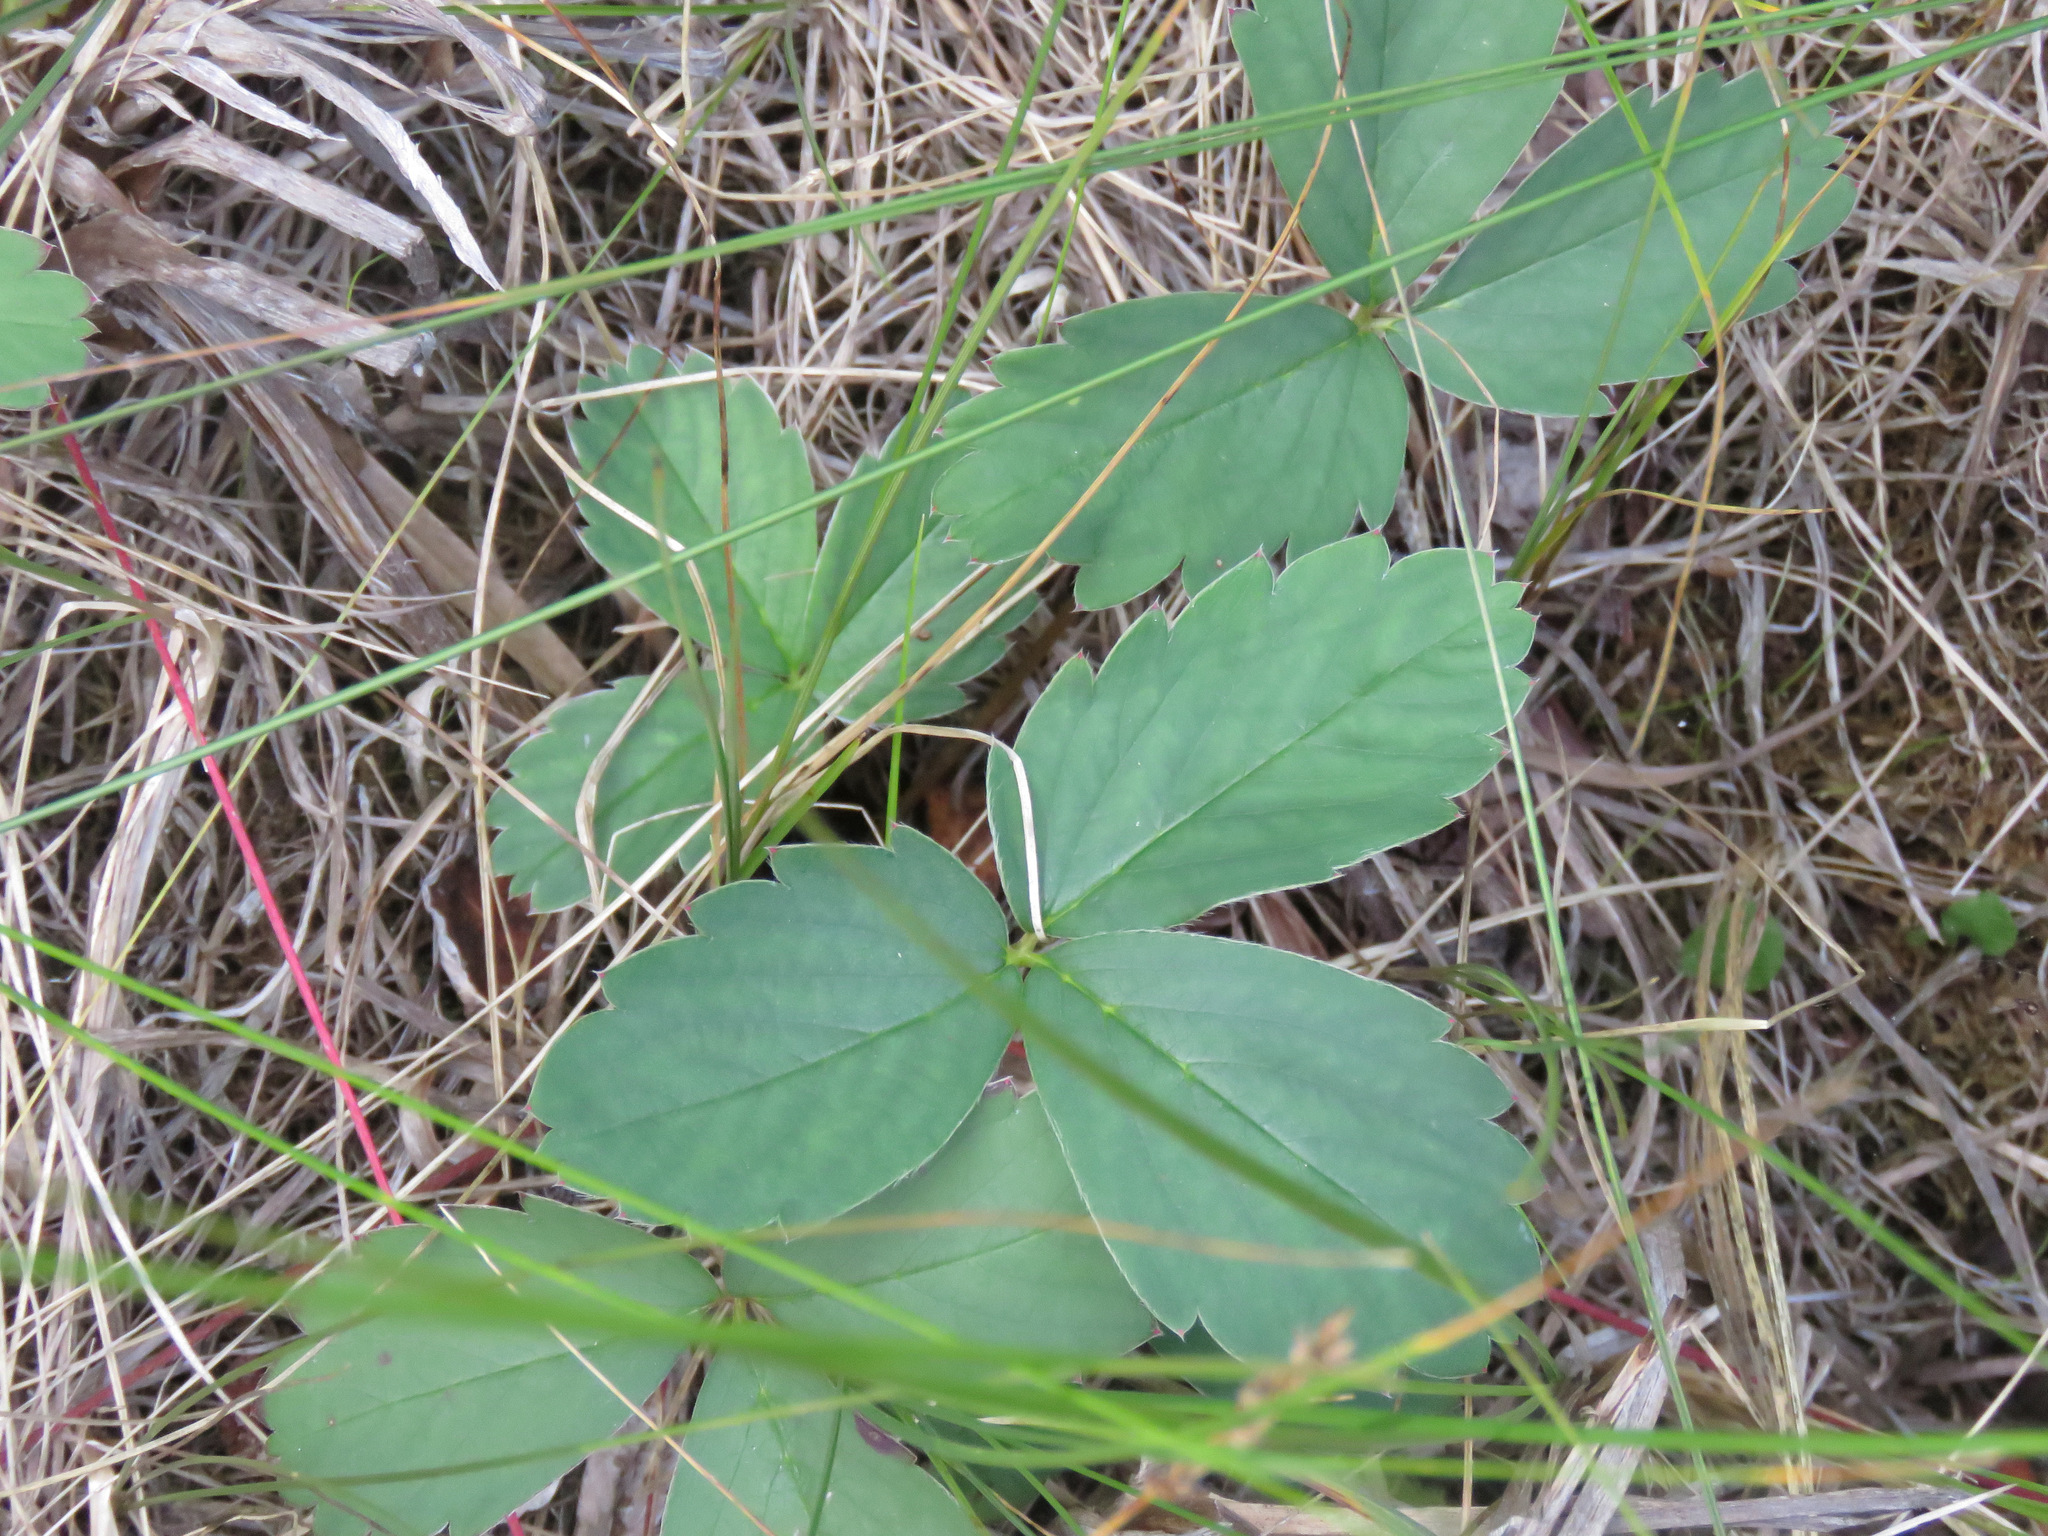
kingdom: Plantae
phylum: Tracheophyta
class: Magnoliopsida
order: Rosales
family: Rosaceae
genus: Fragaria
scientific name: Fragaria virginiana
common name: Thickleaved wild strawberry
